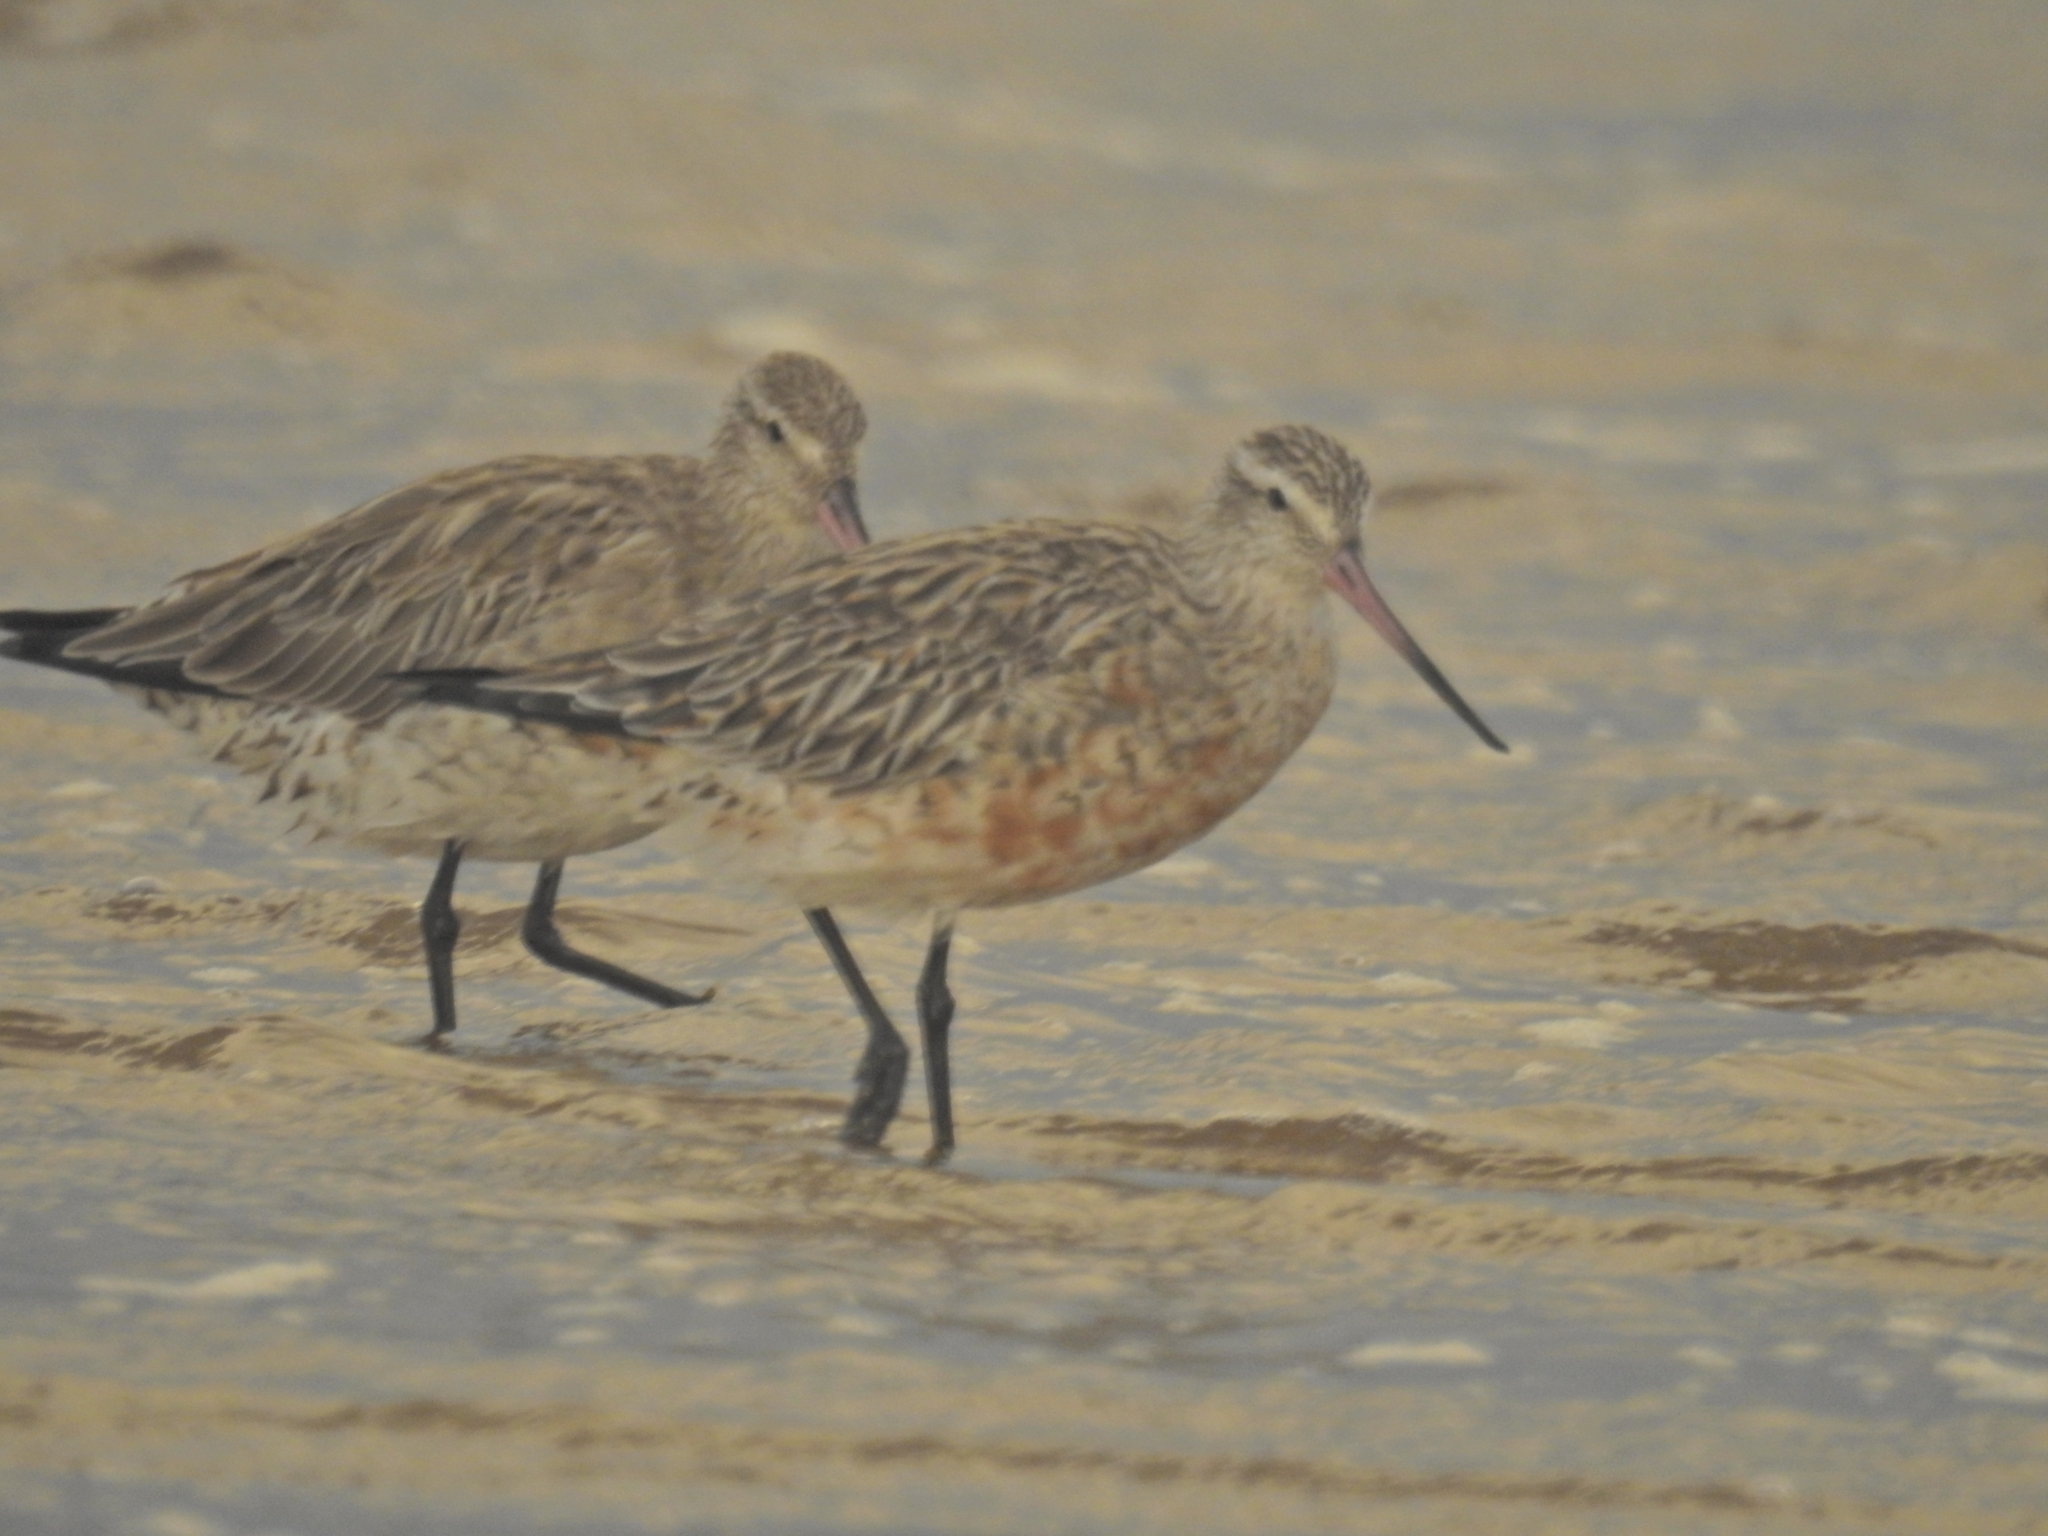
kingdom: Animalia
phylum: Chordata
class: Aves
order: Charadriiformes
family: Scolopacidae
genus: Limosa
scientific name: Limosa lapponica
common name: Bar-tailed godwit
